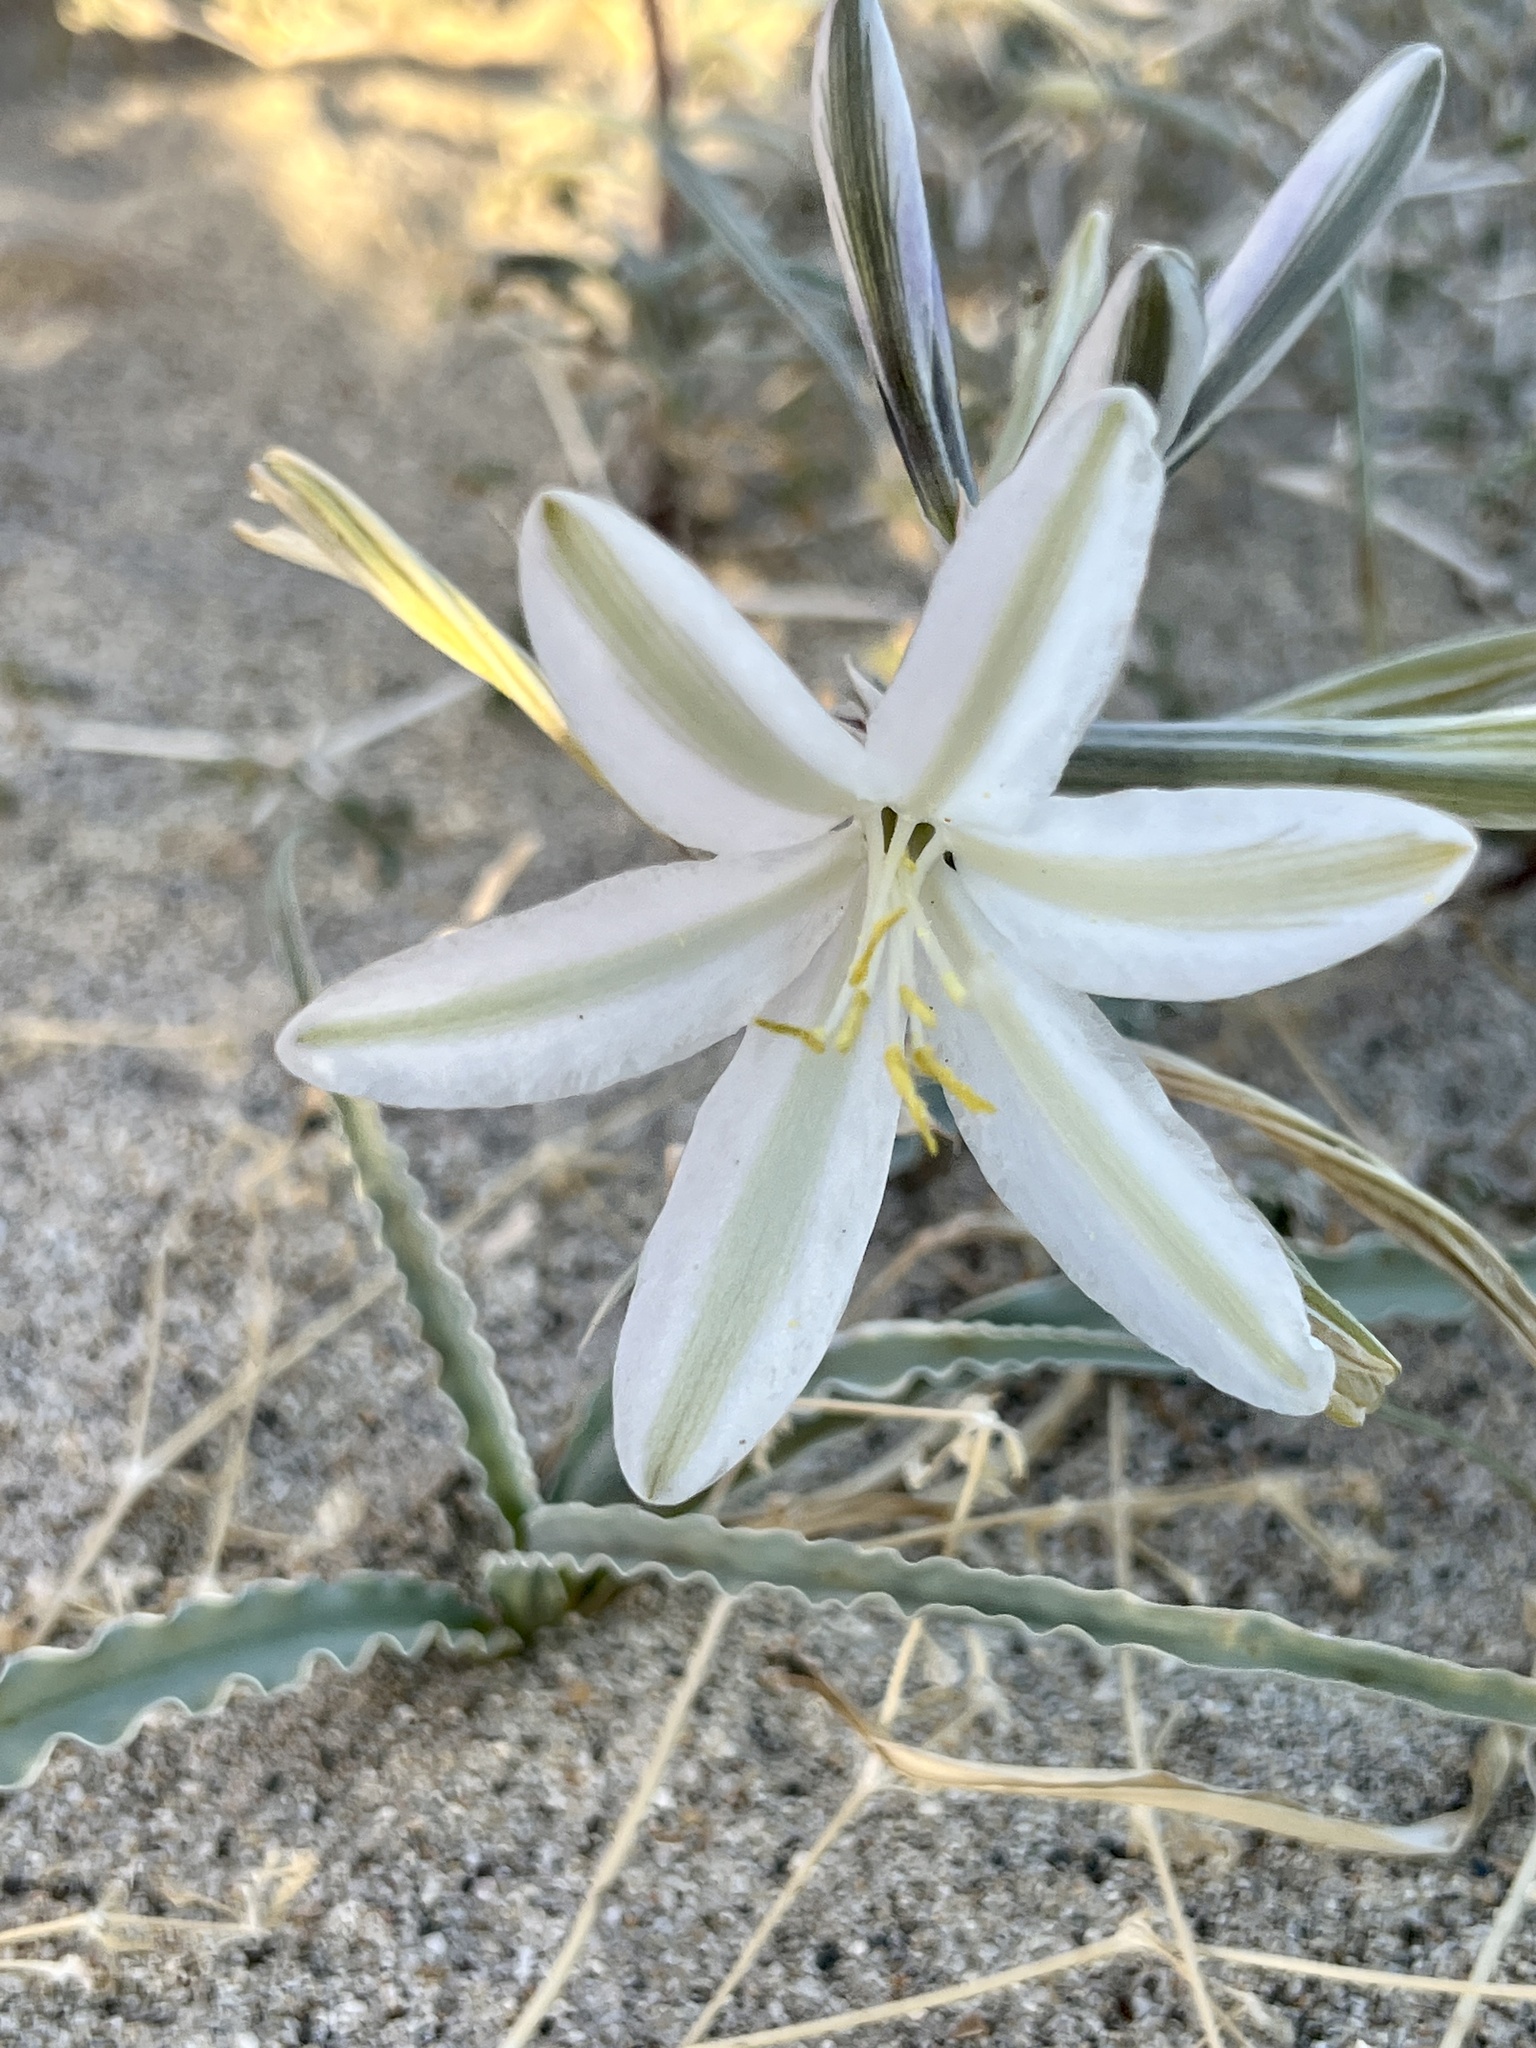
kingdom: Plantae
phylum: Tracheophyta
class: Liliopsida
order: Asparagales
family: Asparagaceae
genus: Hesperocallis
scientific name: Hesperocallis undulata
